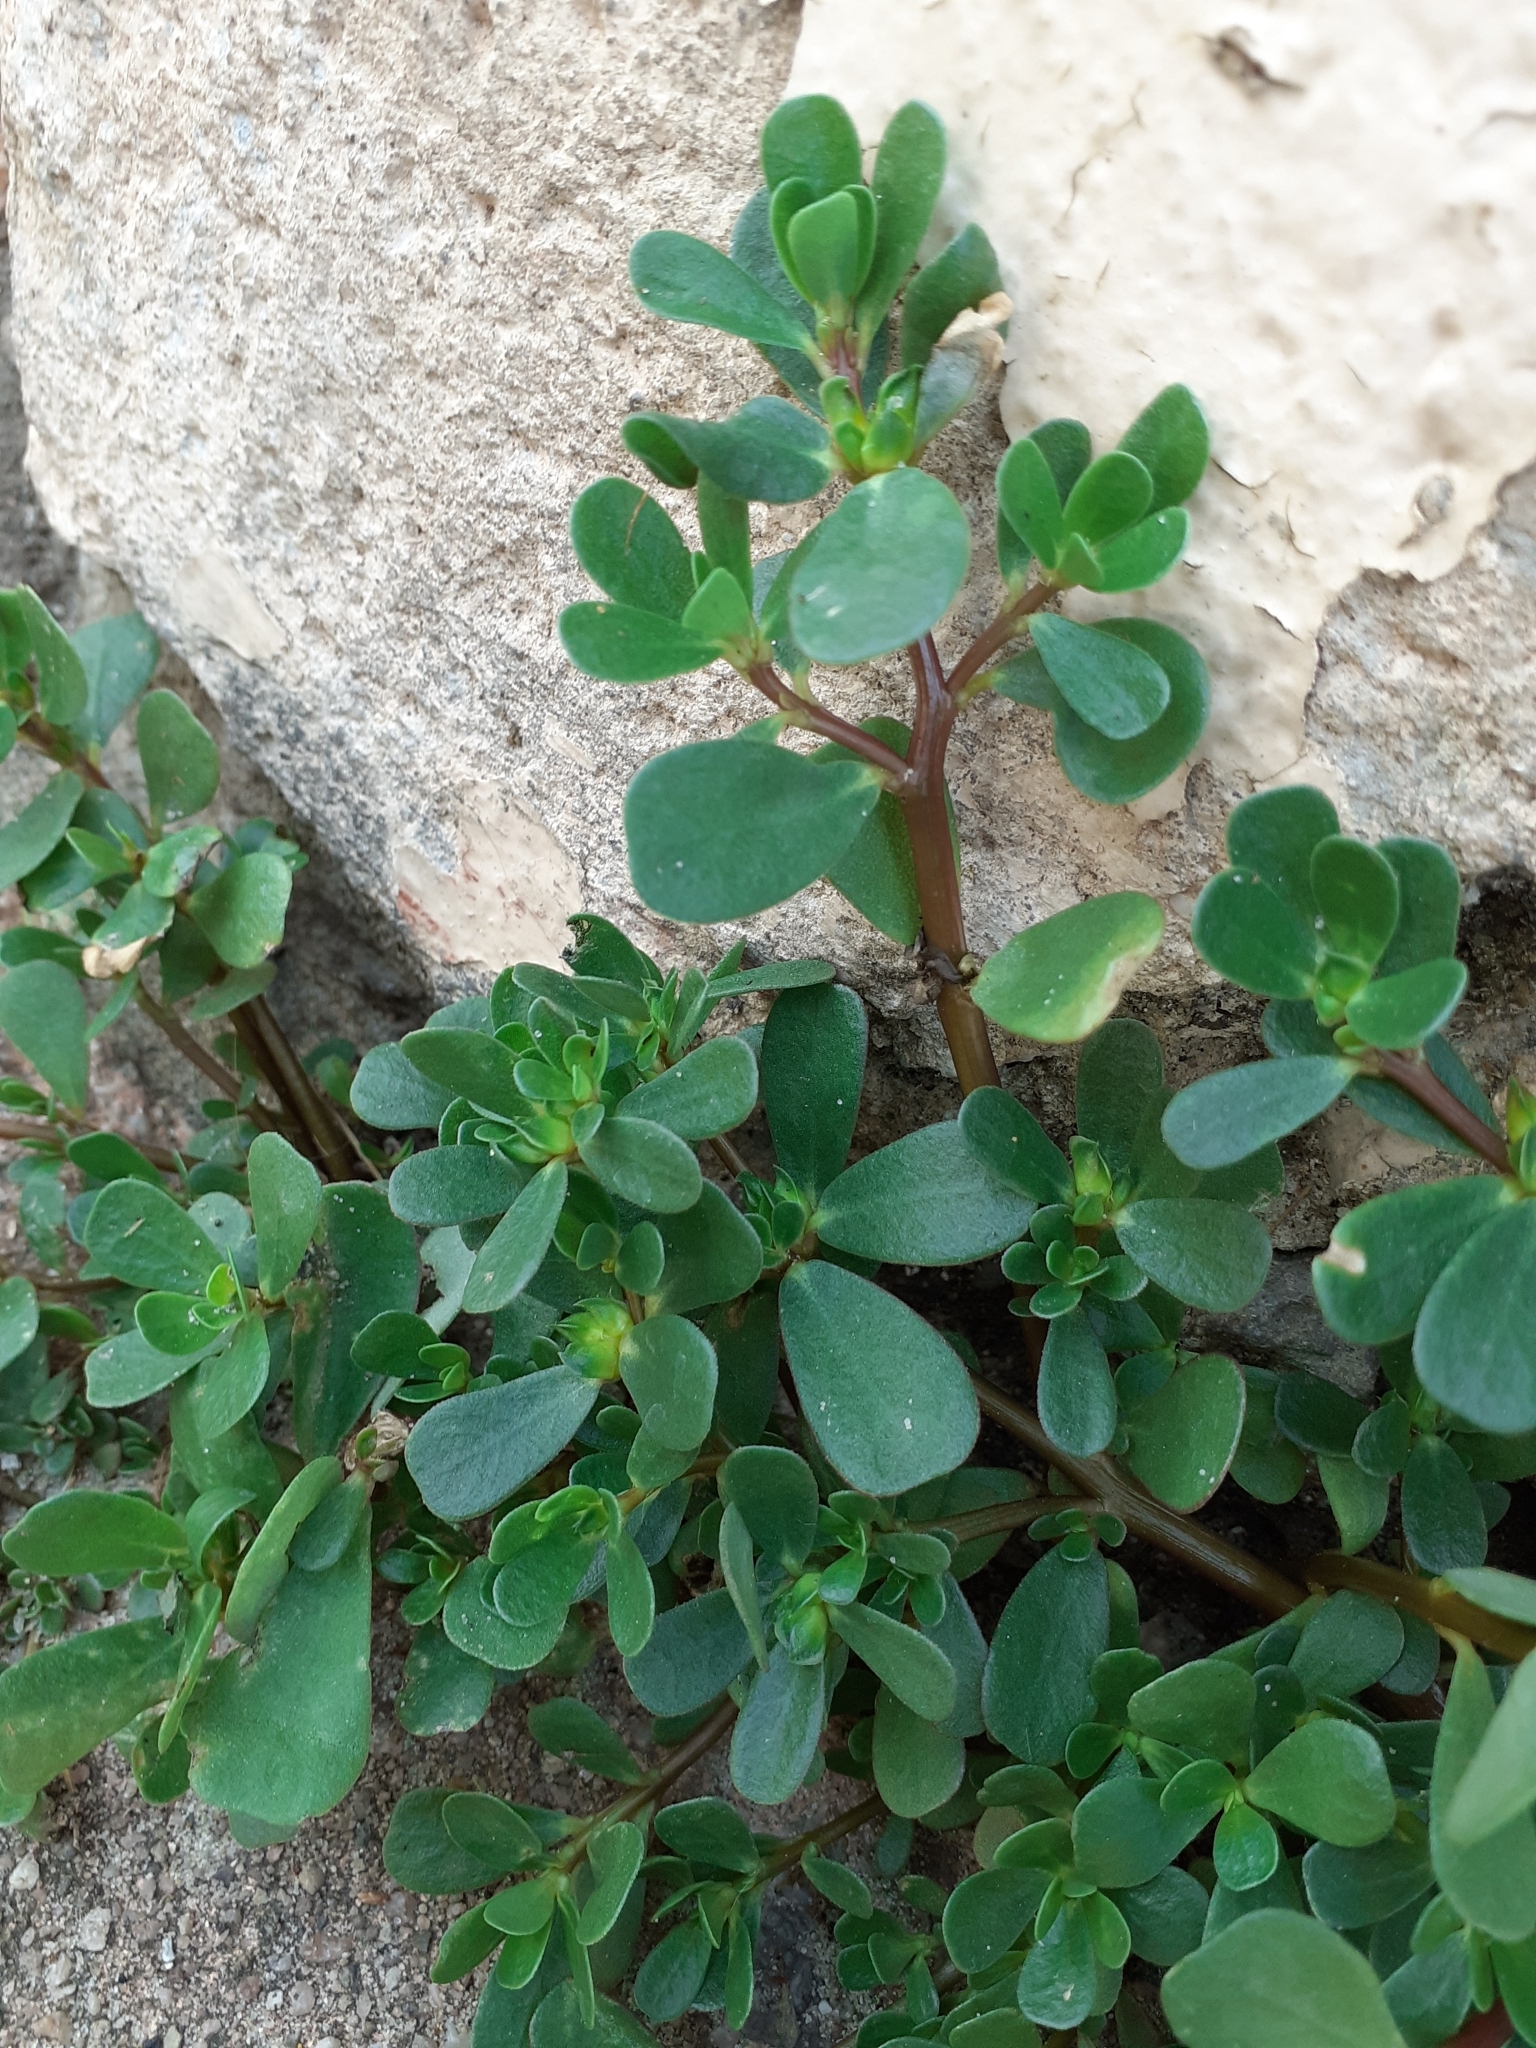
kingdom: Plantae
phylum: Tracheophyta
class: Magnoliopsida
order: Caryophyllales
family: Portulacaceae
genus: Portulaca
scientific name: Portulaca oleracea
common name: Common purslane
